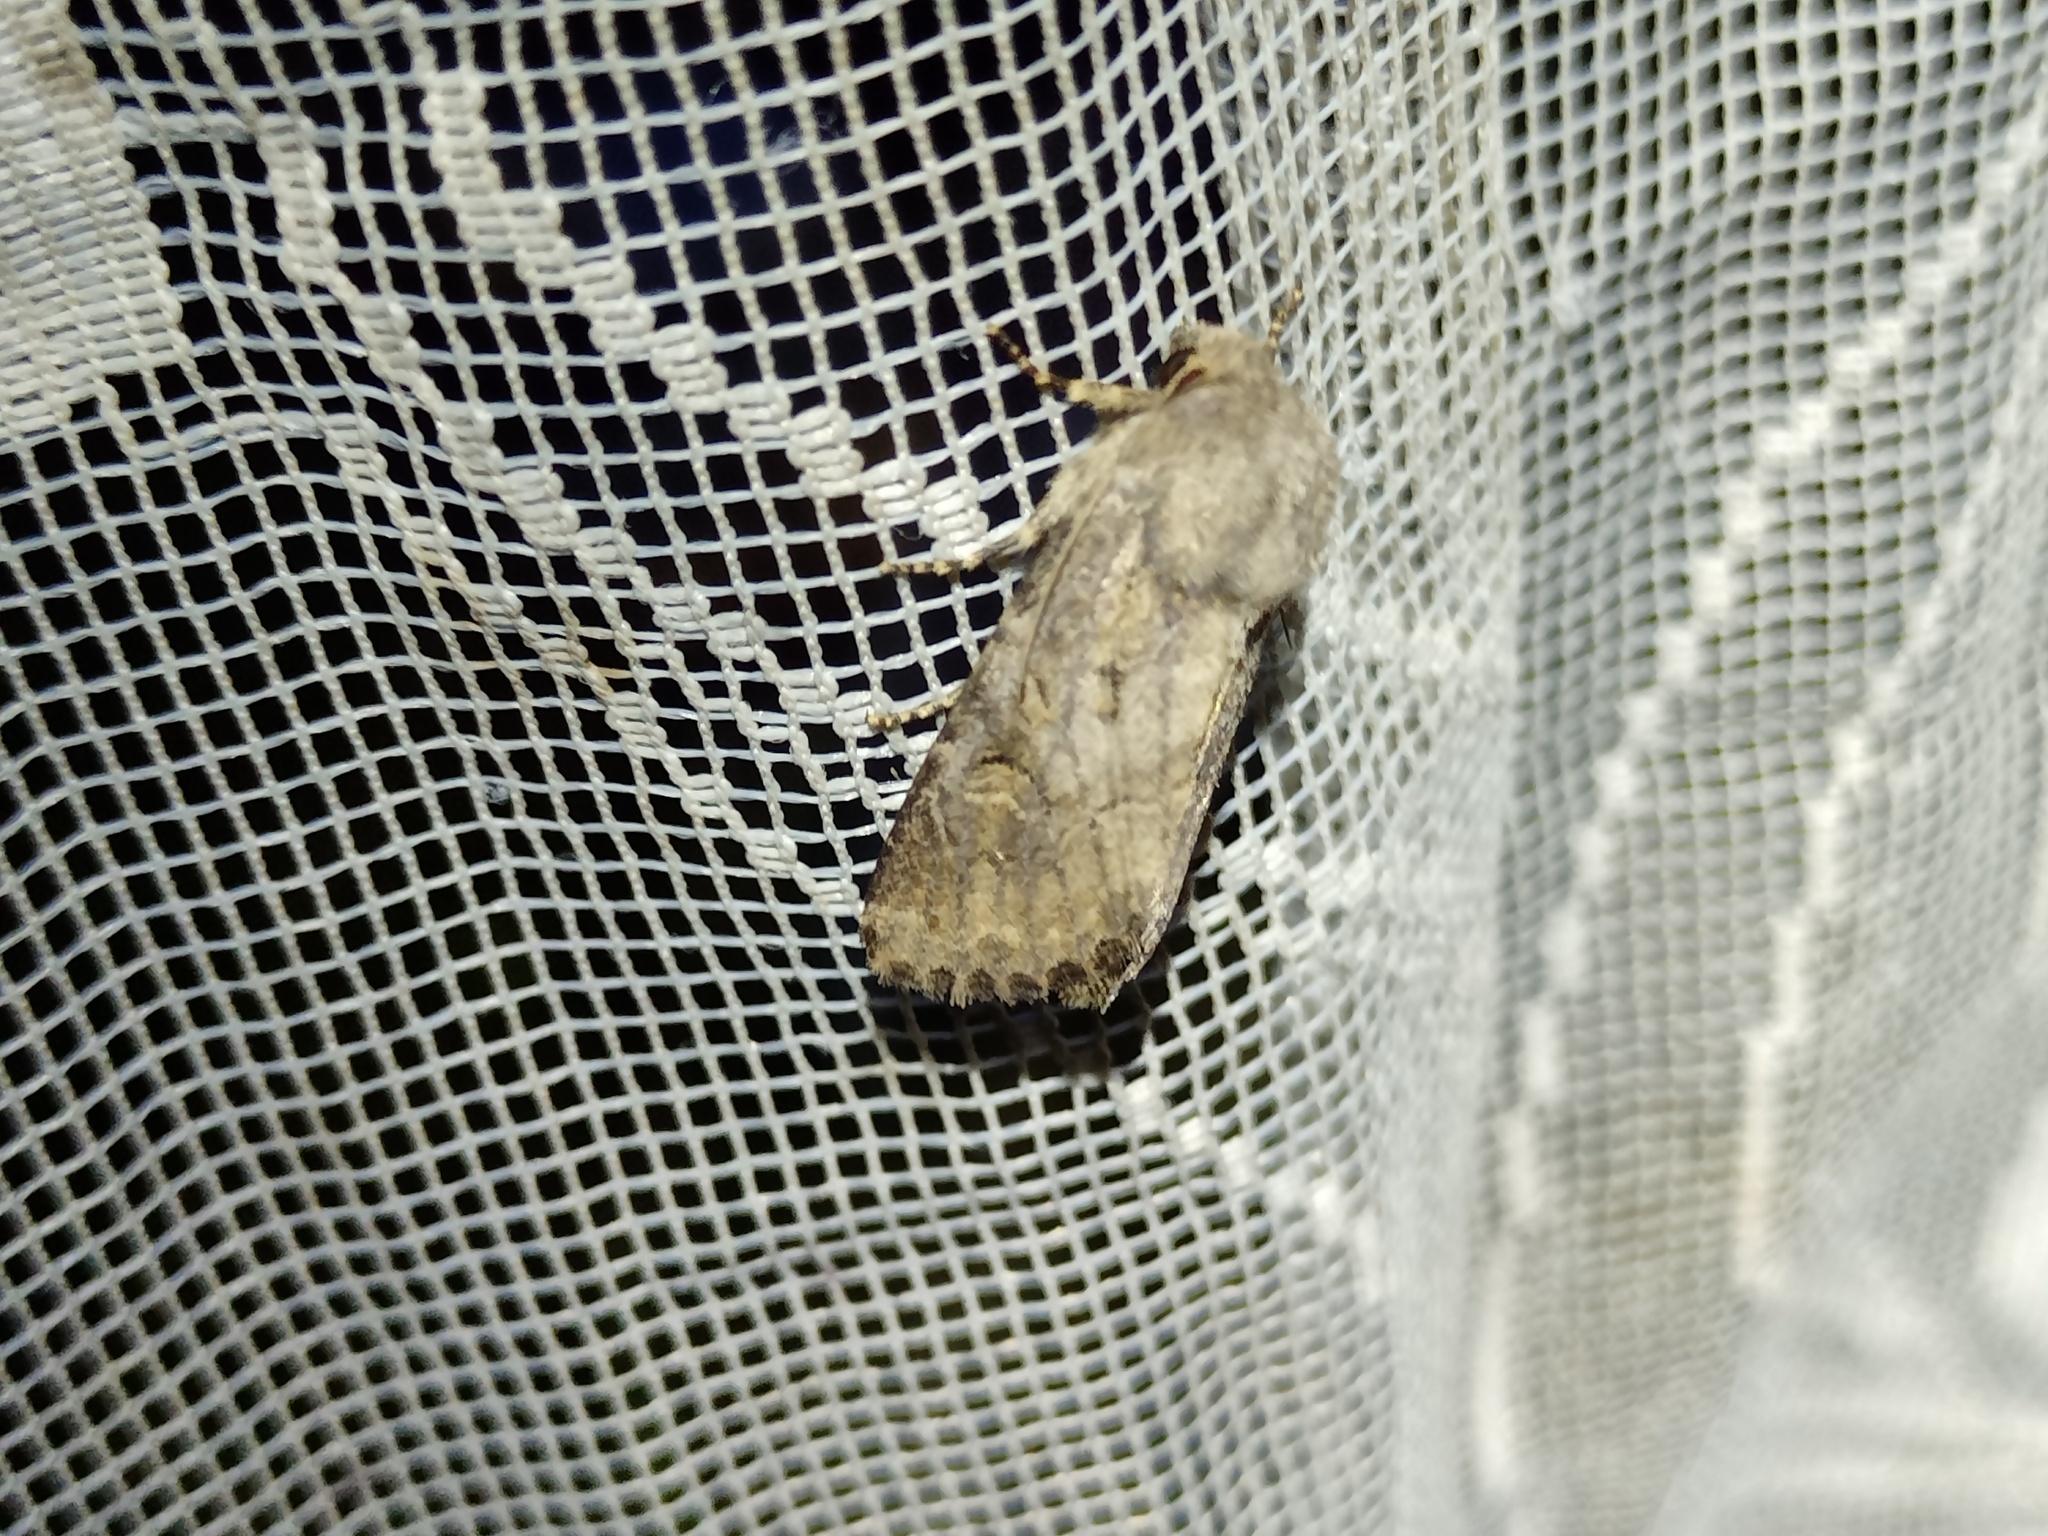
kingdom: Animalia
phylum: Arthropoda
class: Insecta
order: Lepidoptera
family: Noctuidae
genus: Luperina
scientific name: Luperina testacea
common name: Flounced rustic
